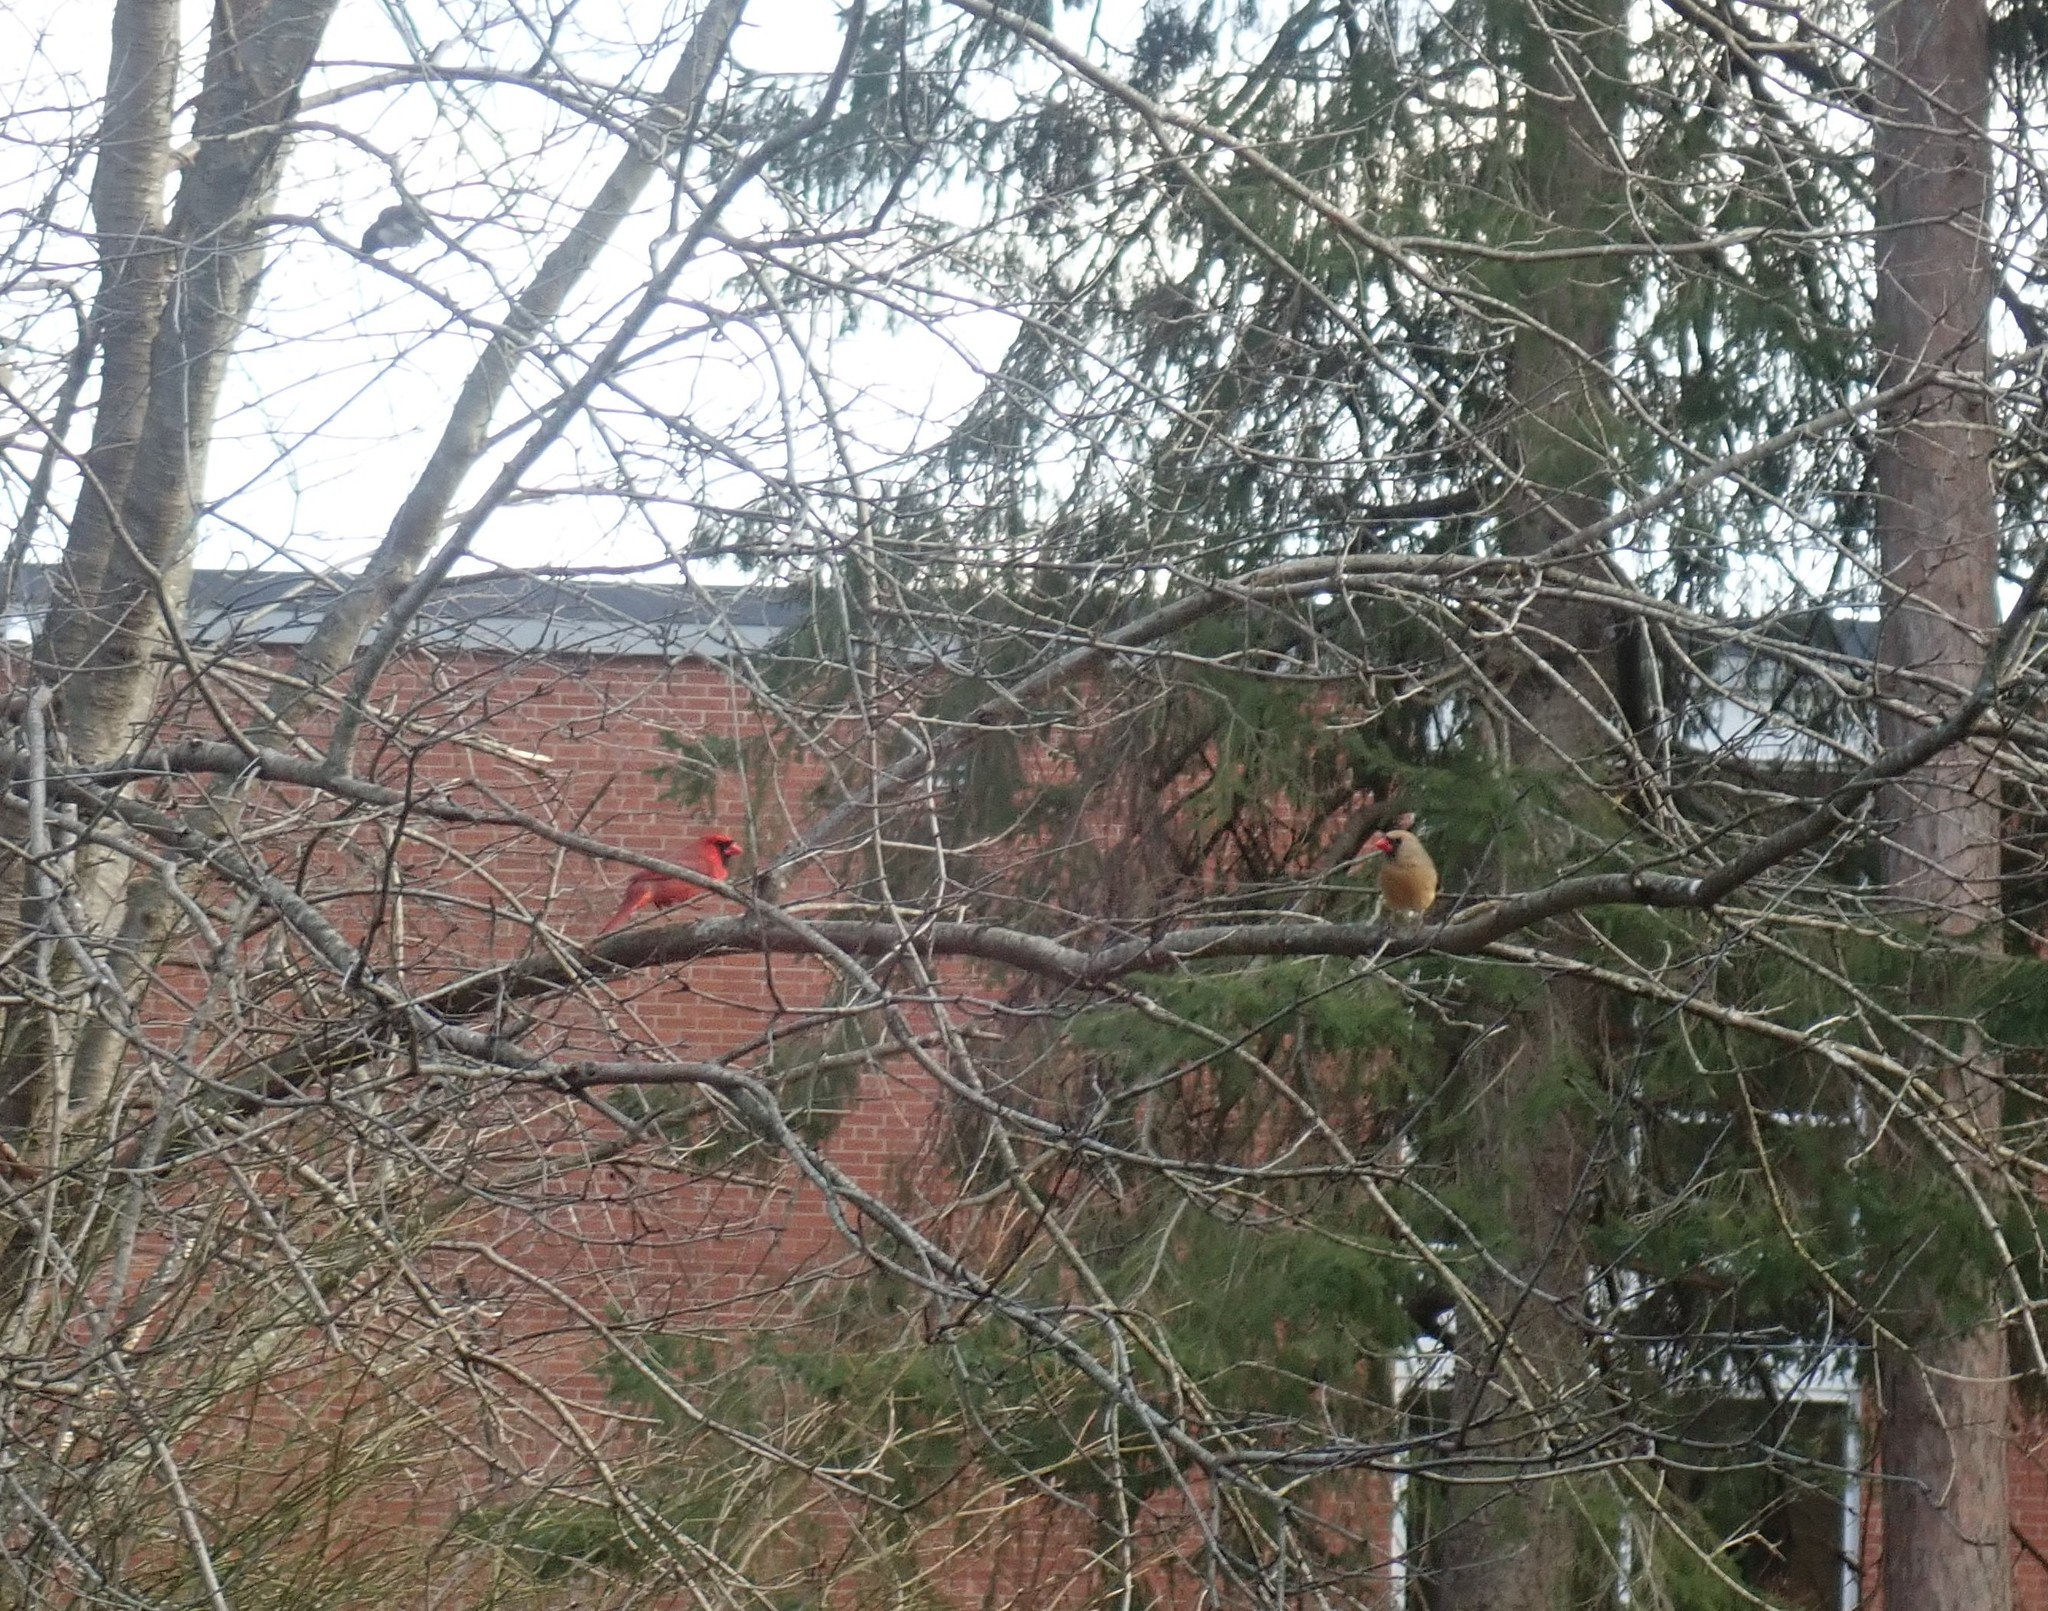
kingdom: Animalia
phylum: Chordata
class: Aves
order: Passeriformes
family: Cardinalidae
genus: Cardinalis
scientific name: Cardinalis cardinalis
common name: Northern cardinal
